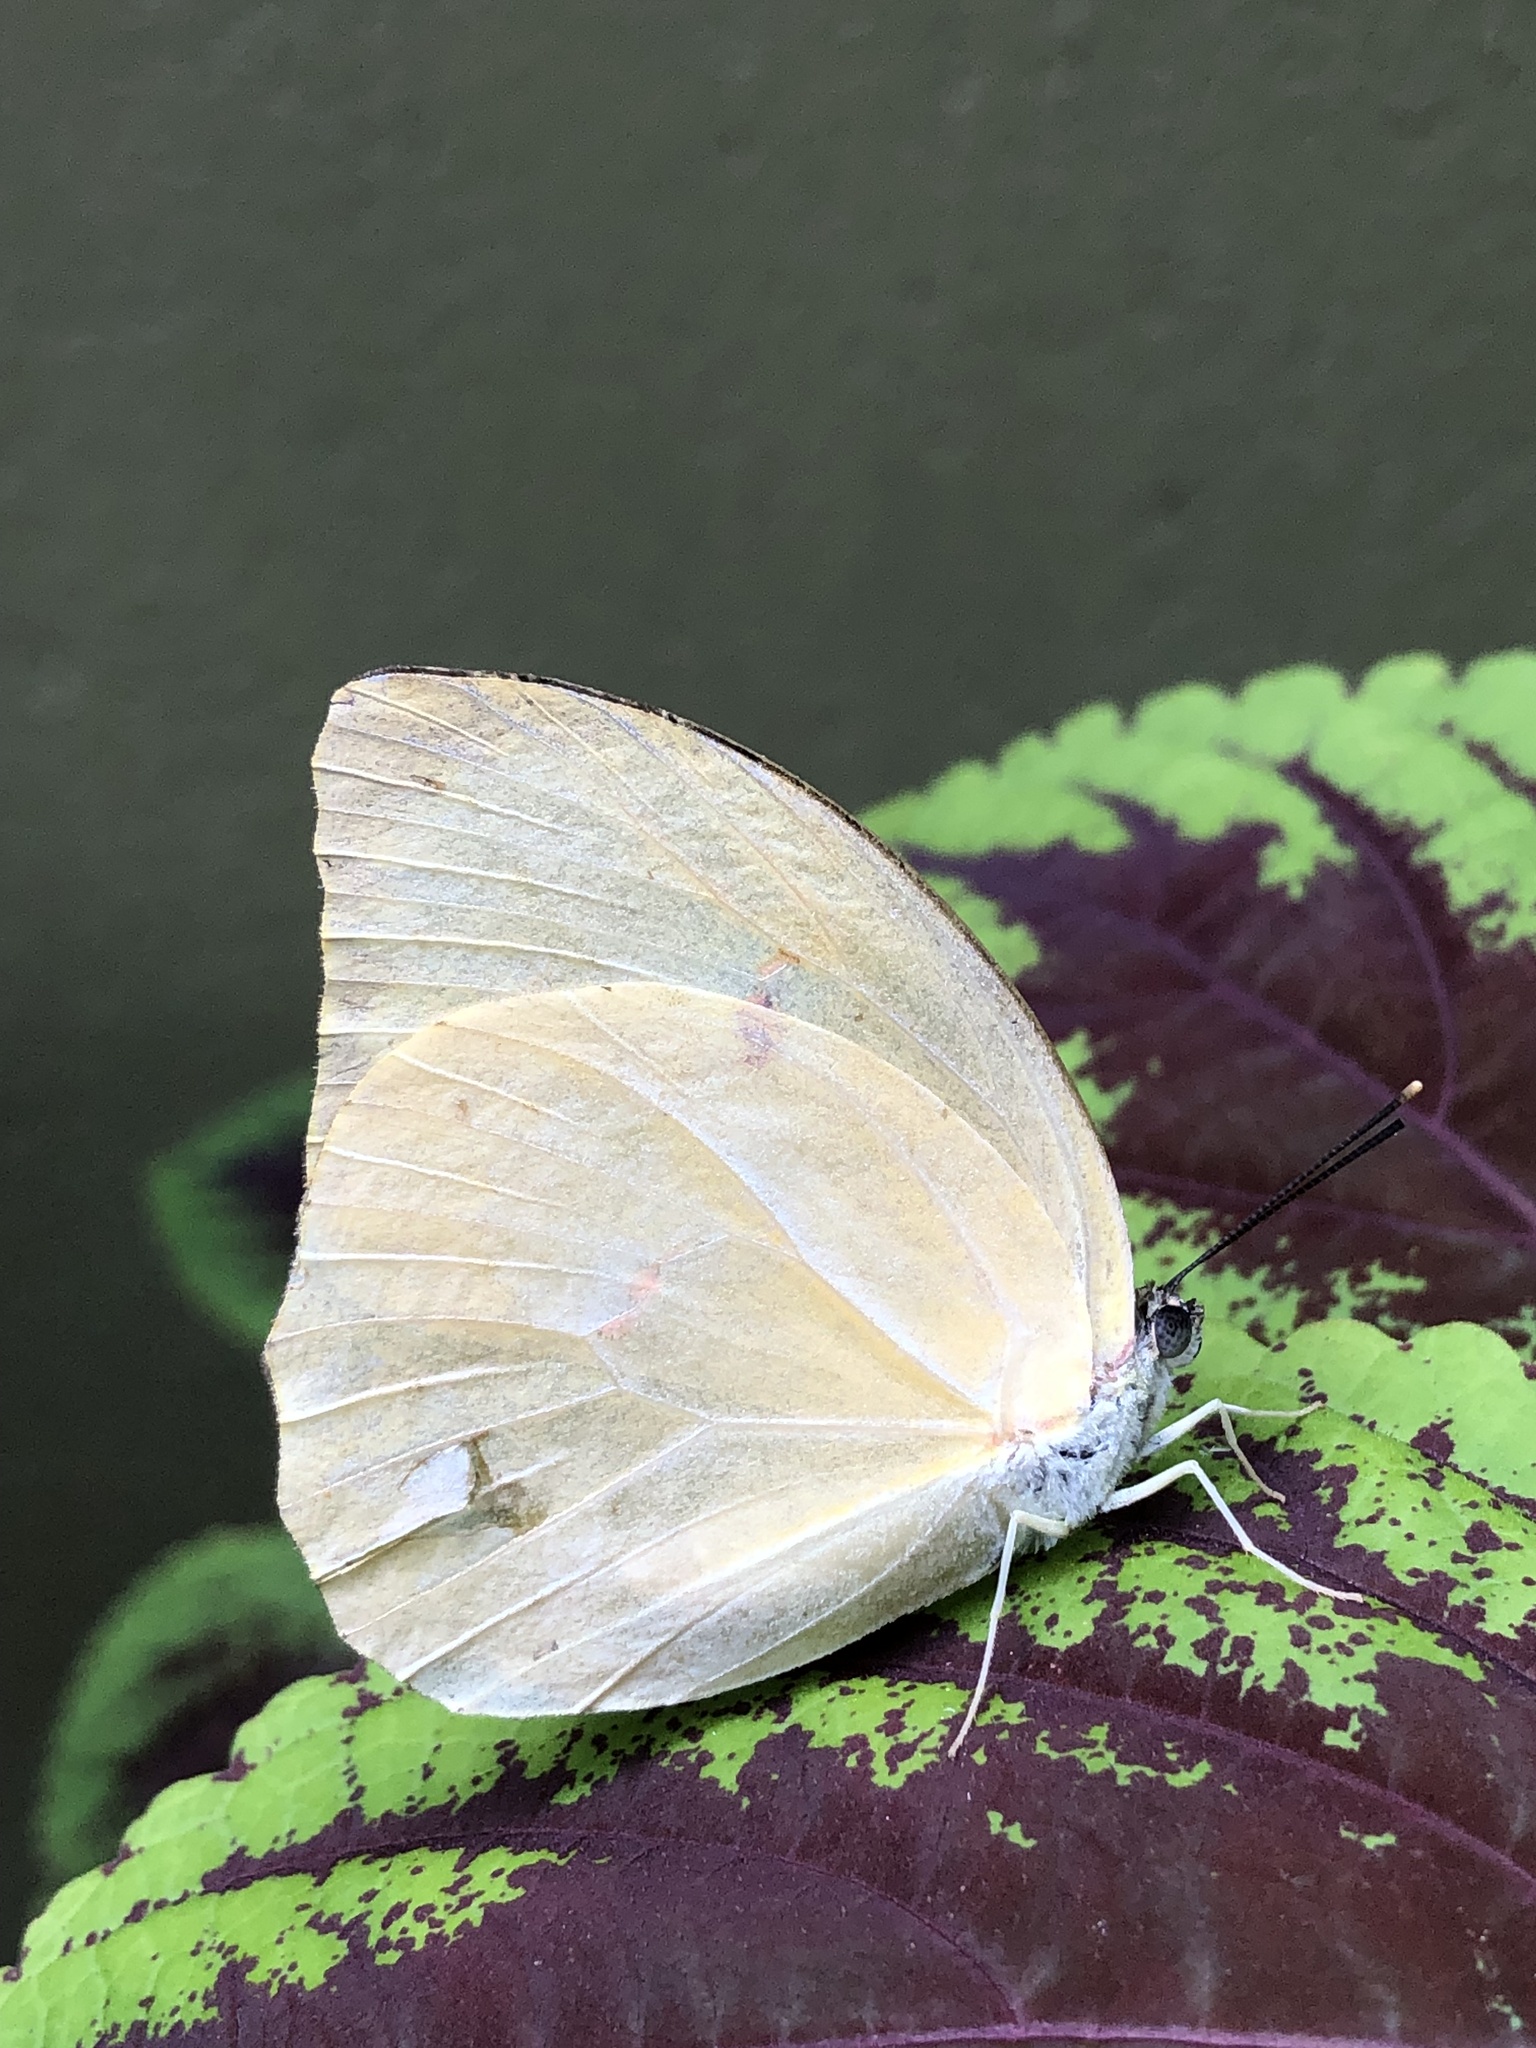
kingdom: Animalia
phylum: Arthropoda
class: Insecta
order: Lepidoptera
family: Pieridae
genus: Anteos
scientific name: Anteos menippe
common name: Orangetip angled-sulphur
